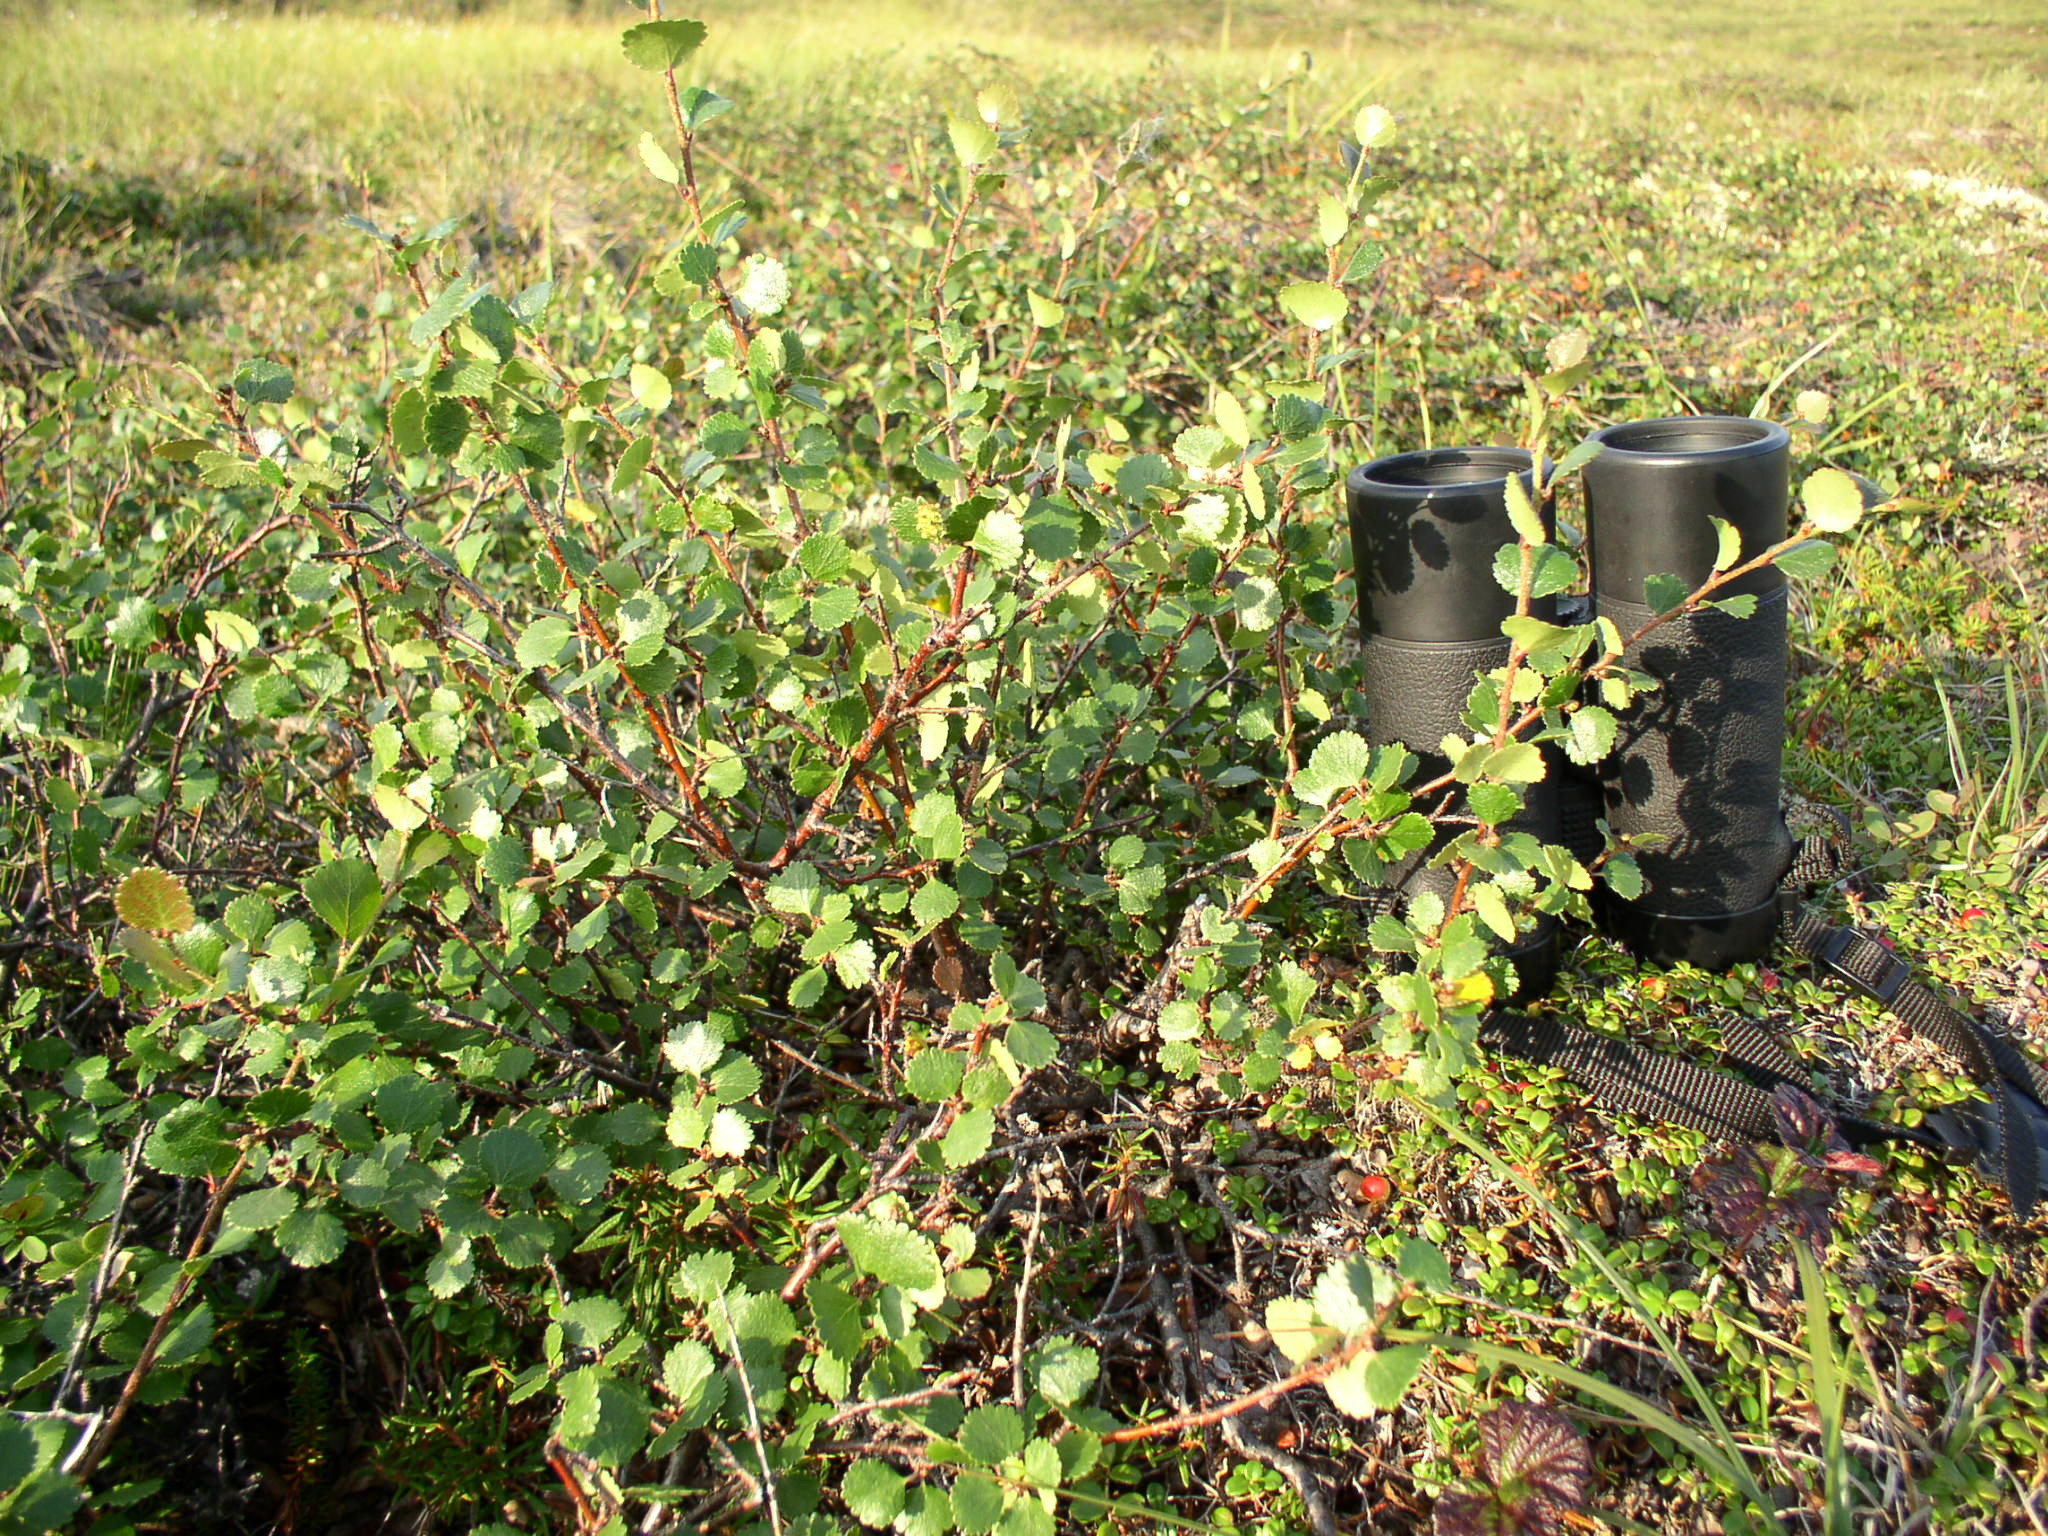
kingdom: Plantae
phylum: Tracheophyta
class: Magnoliopsida
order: Fagales
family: Betulaceae
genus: Betula
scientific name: Betula nana
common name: Arctic dwarf birch
